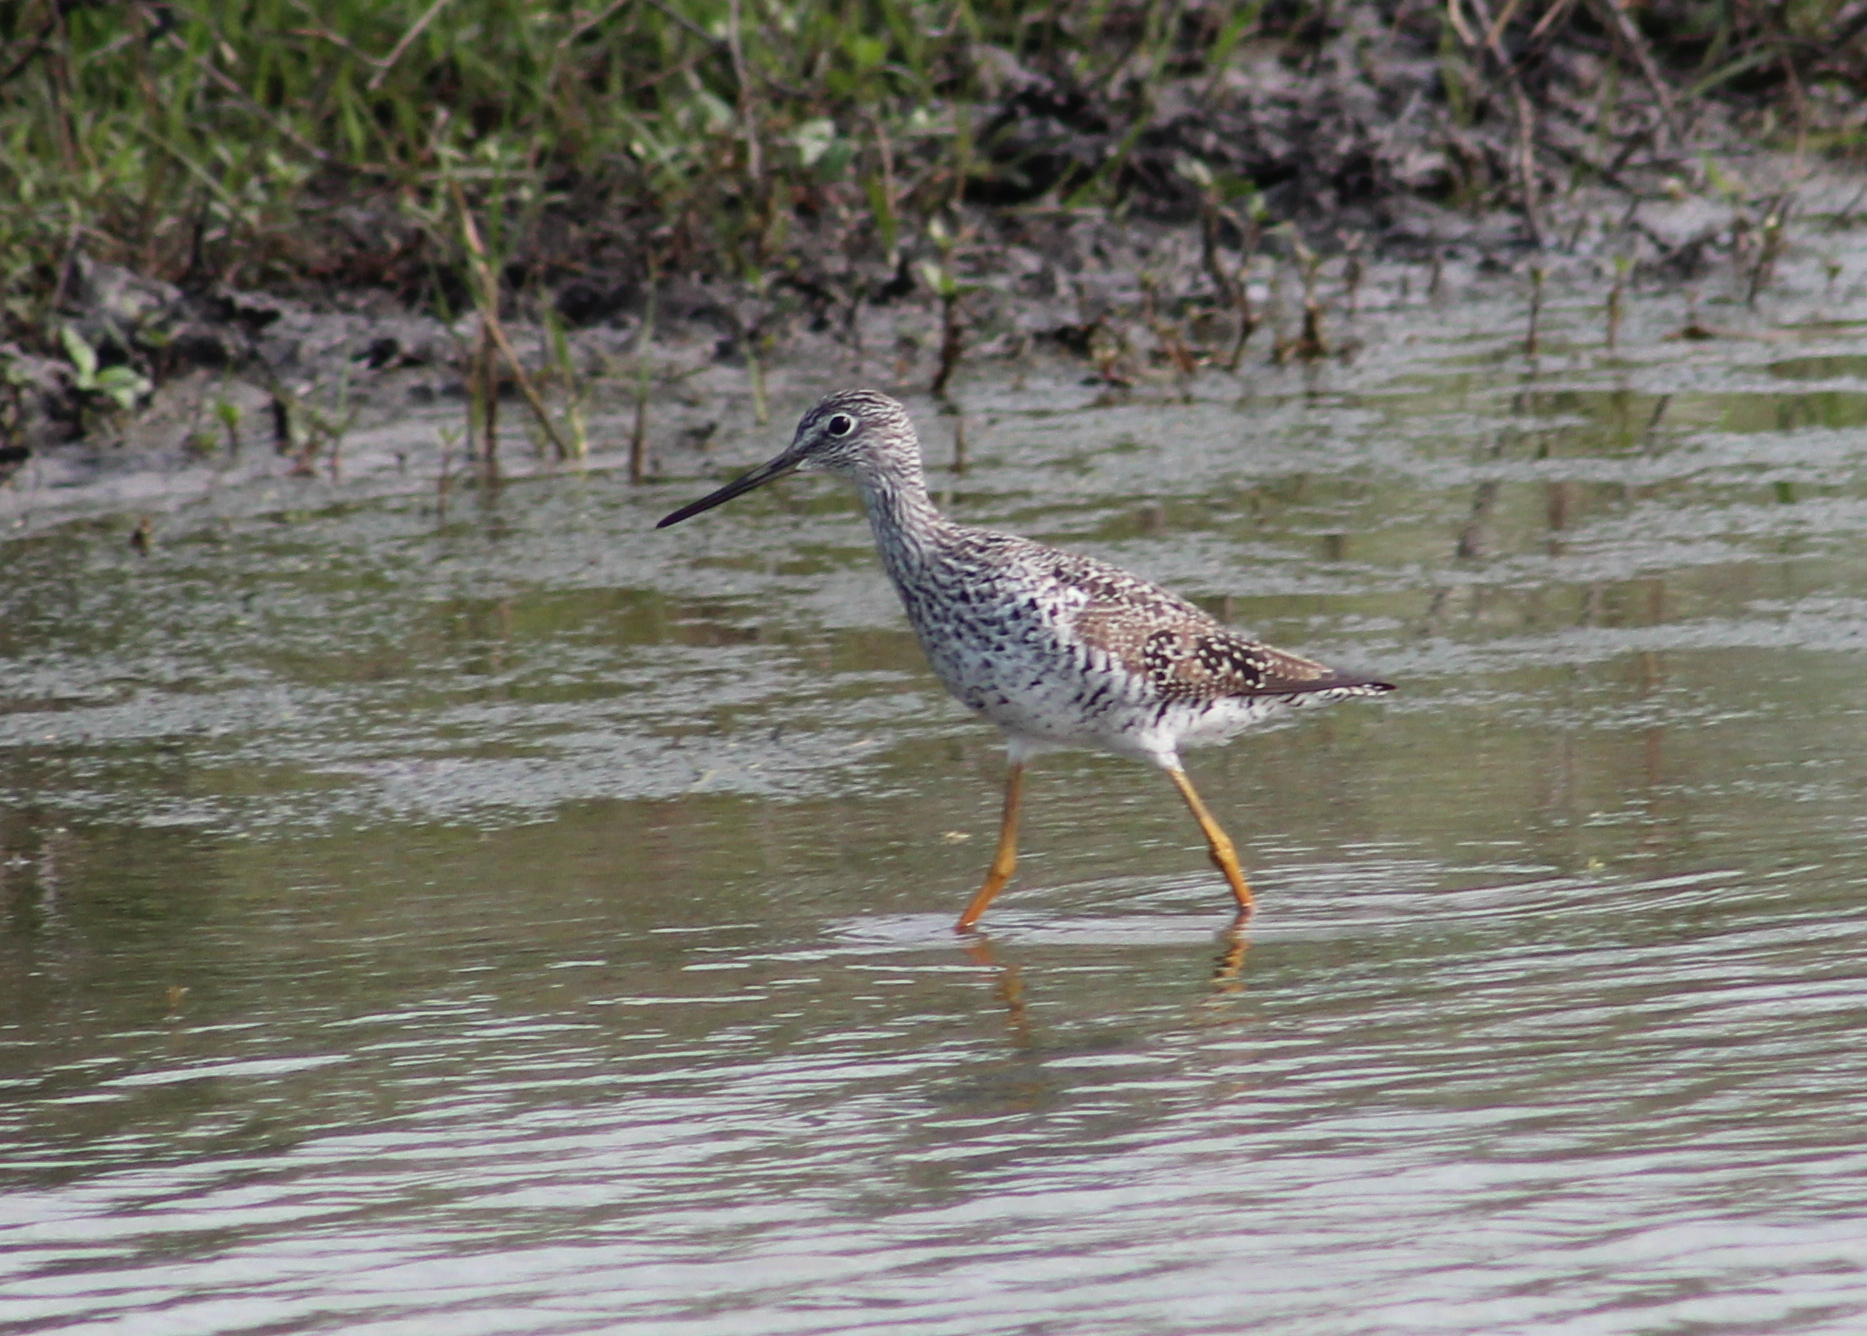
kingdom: Animalia
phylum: Chordata
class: Aves
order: Charadriiformes
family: Scolopacidae
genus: Tringa
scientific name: Tringa melanoleuca
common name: Greater yellowlegs
